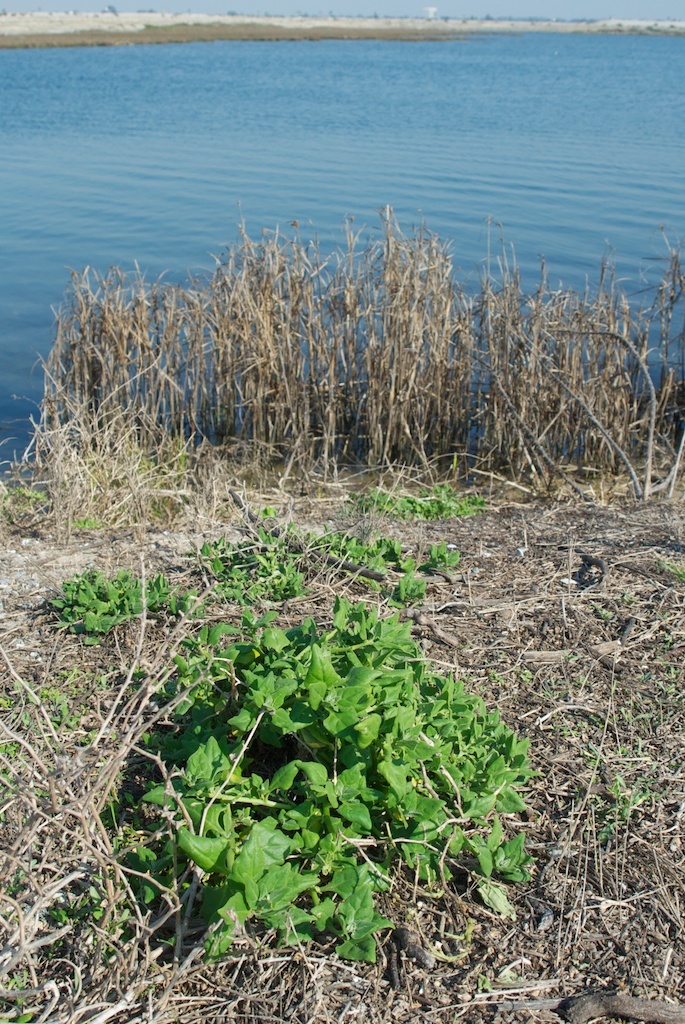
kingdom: Plantae
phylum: Tracheophyta
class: Magnoliopsida
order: Caryophyllales
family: Aizoaceae
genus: Tetragonia
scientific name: Tetragonia tetragonoides
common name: New zealand-spinach
